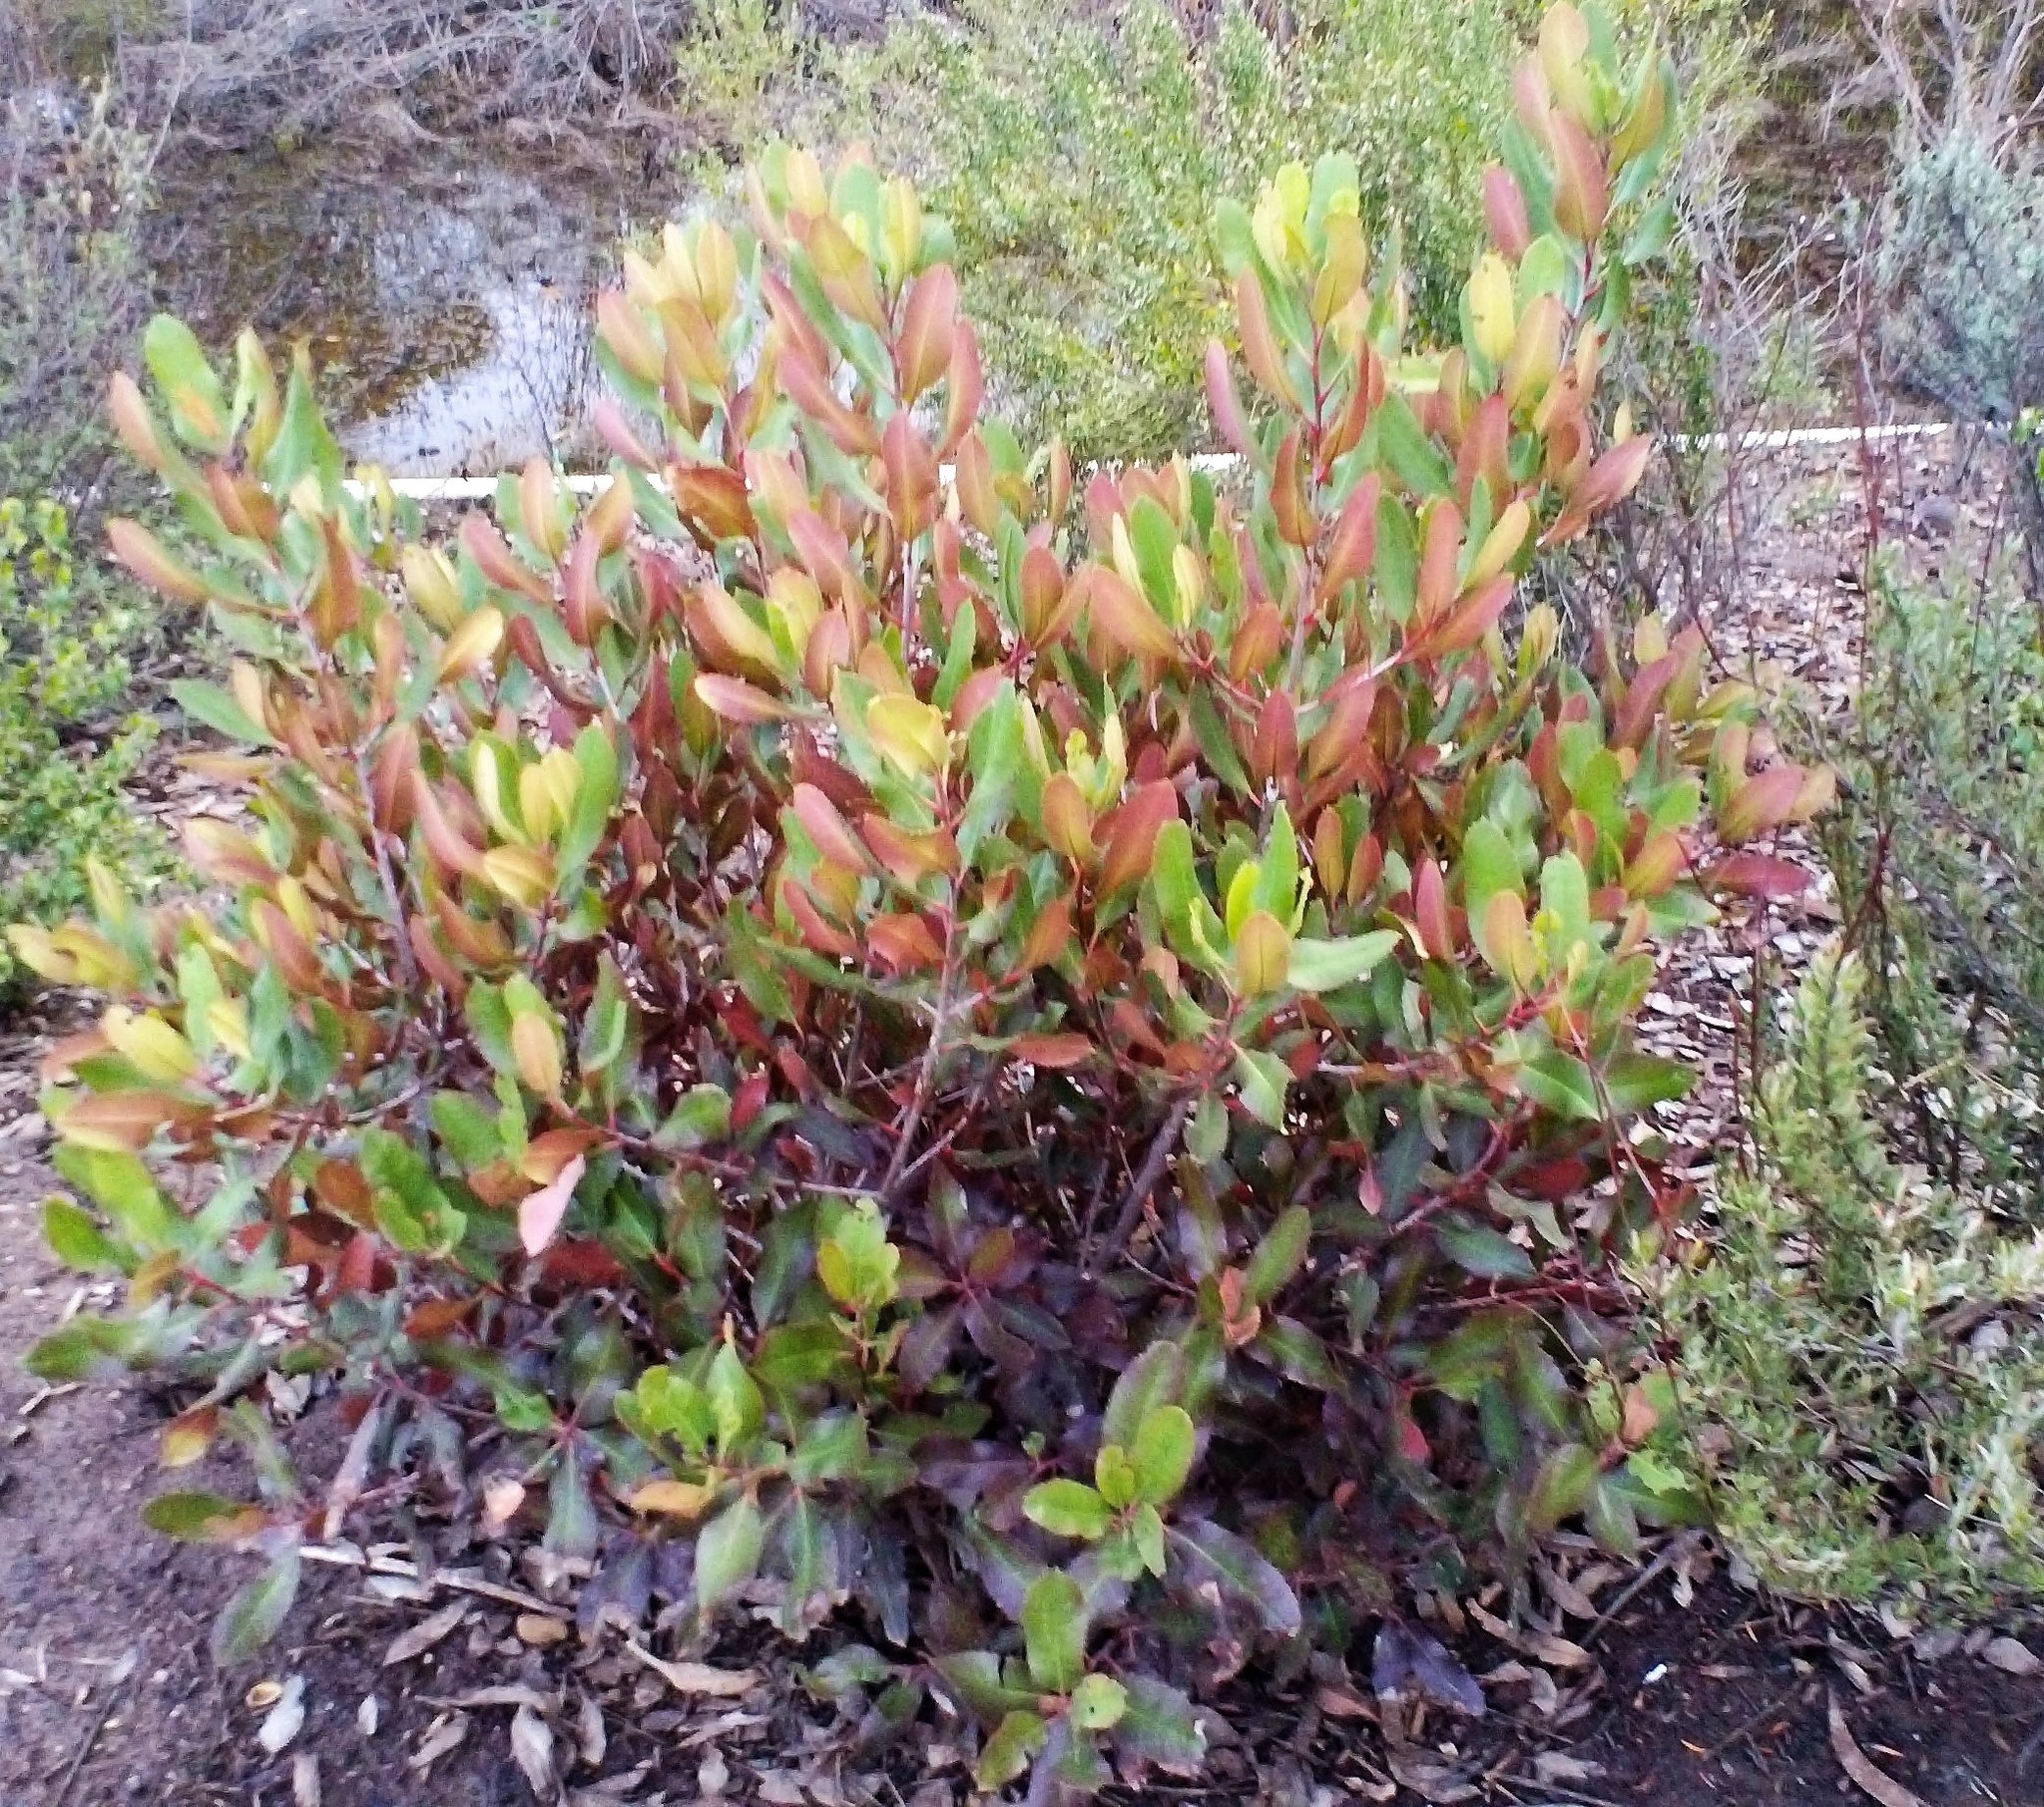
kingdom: Plantae
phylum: Tracheophyta
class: Magnoliopsida
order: Rosales
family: Rosaceae
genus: Heteromeles
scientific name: Heteromeles arbutifolia
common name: California-holly
